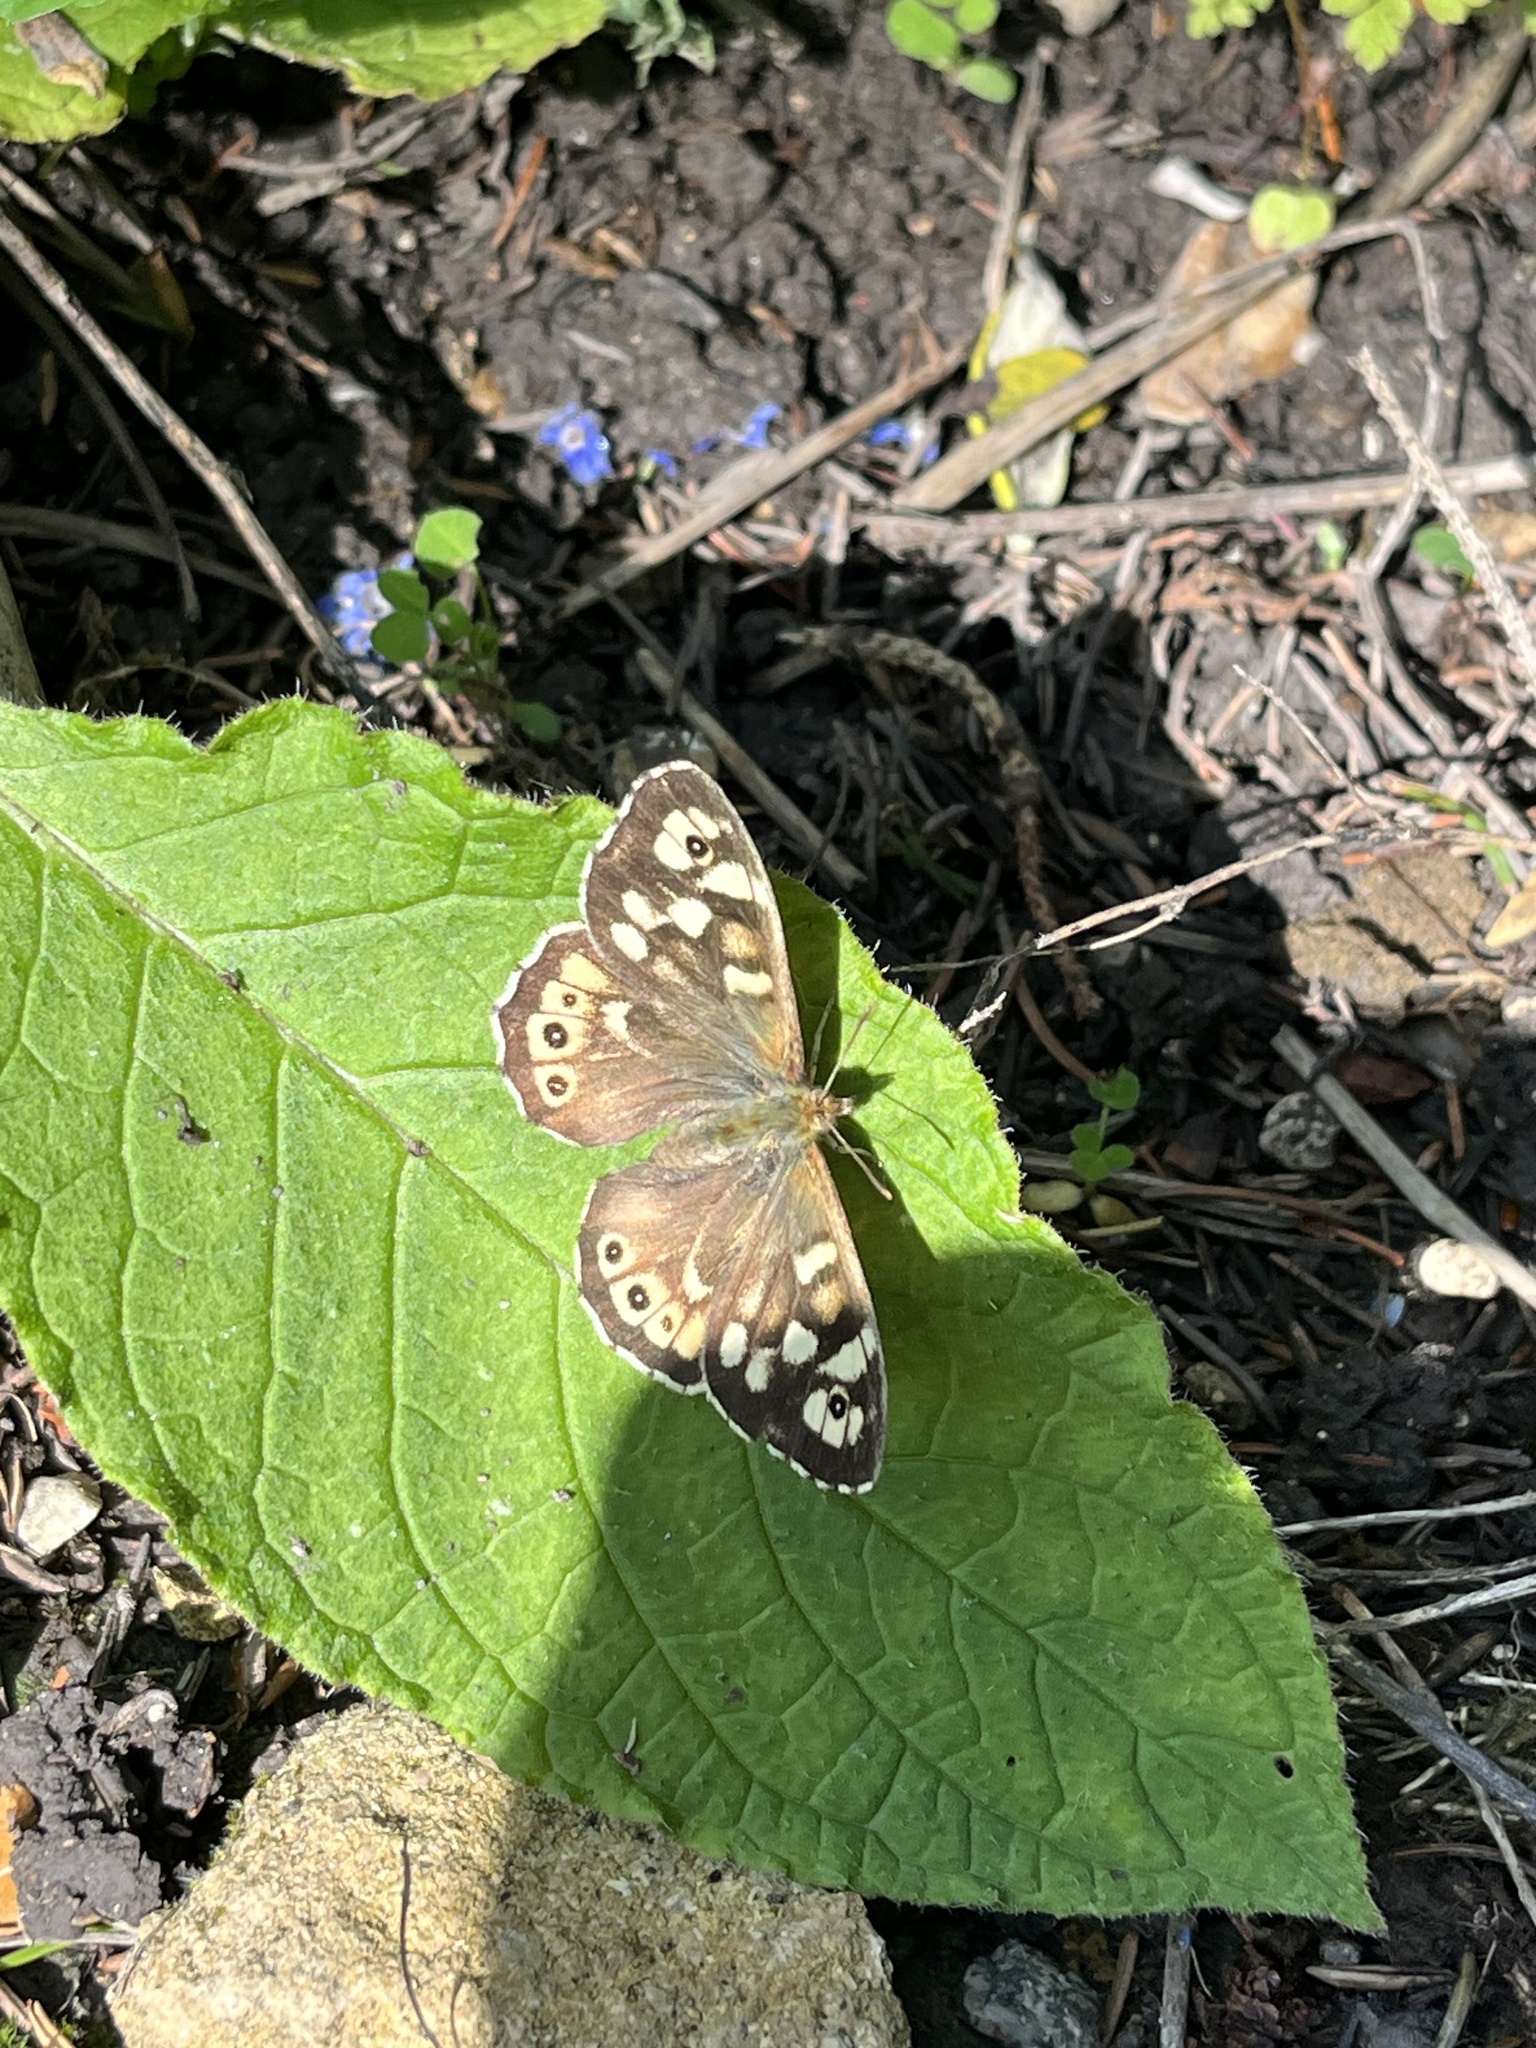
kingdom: Animalia
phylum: Arthropoda
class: Insecta
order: Lepidoptera
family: Nymphalidae
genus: Pararge
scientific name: Pararge aegeria
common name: Speckled wood
